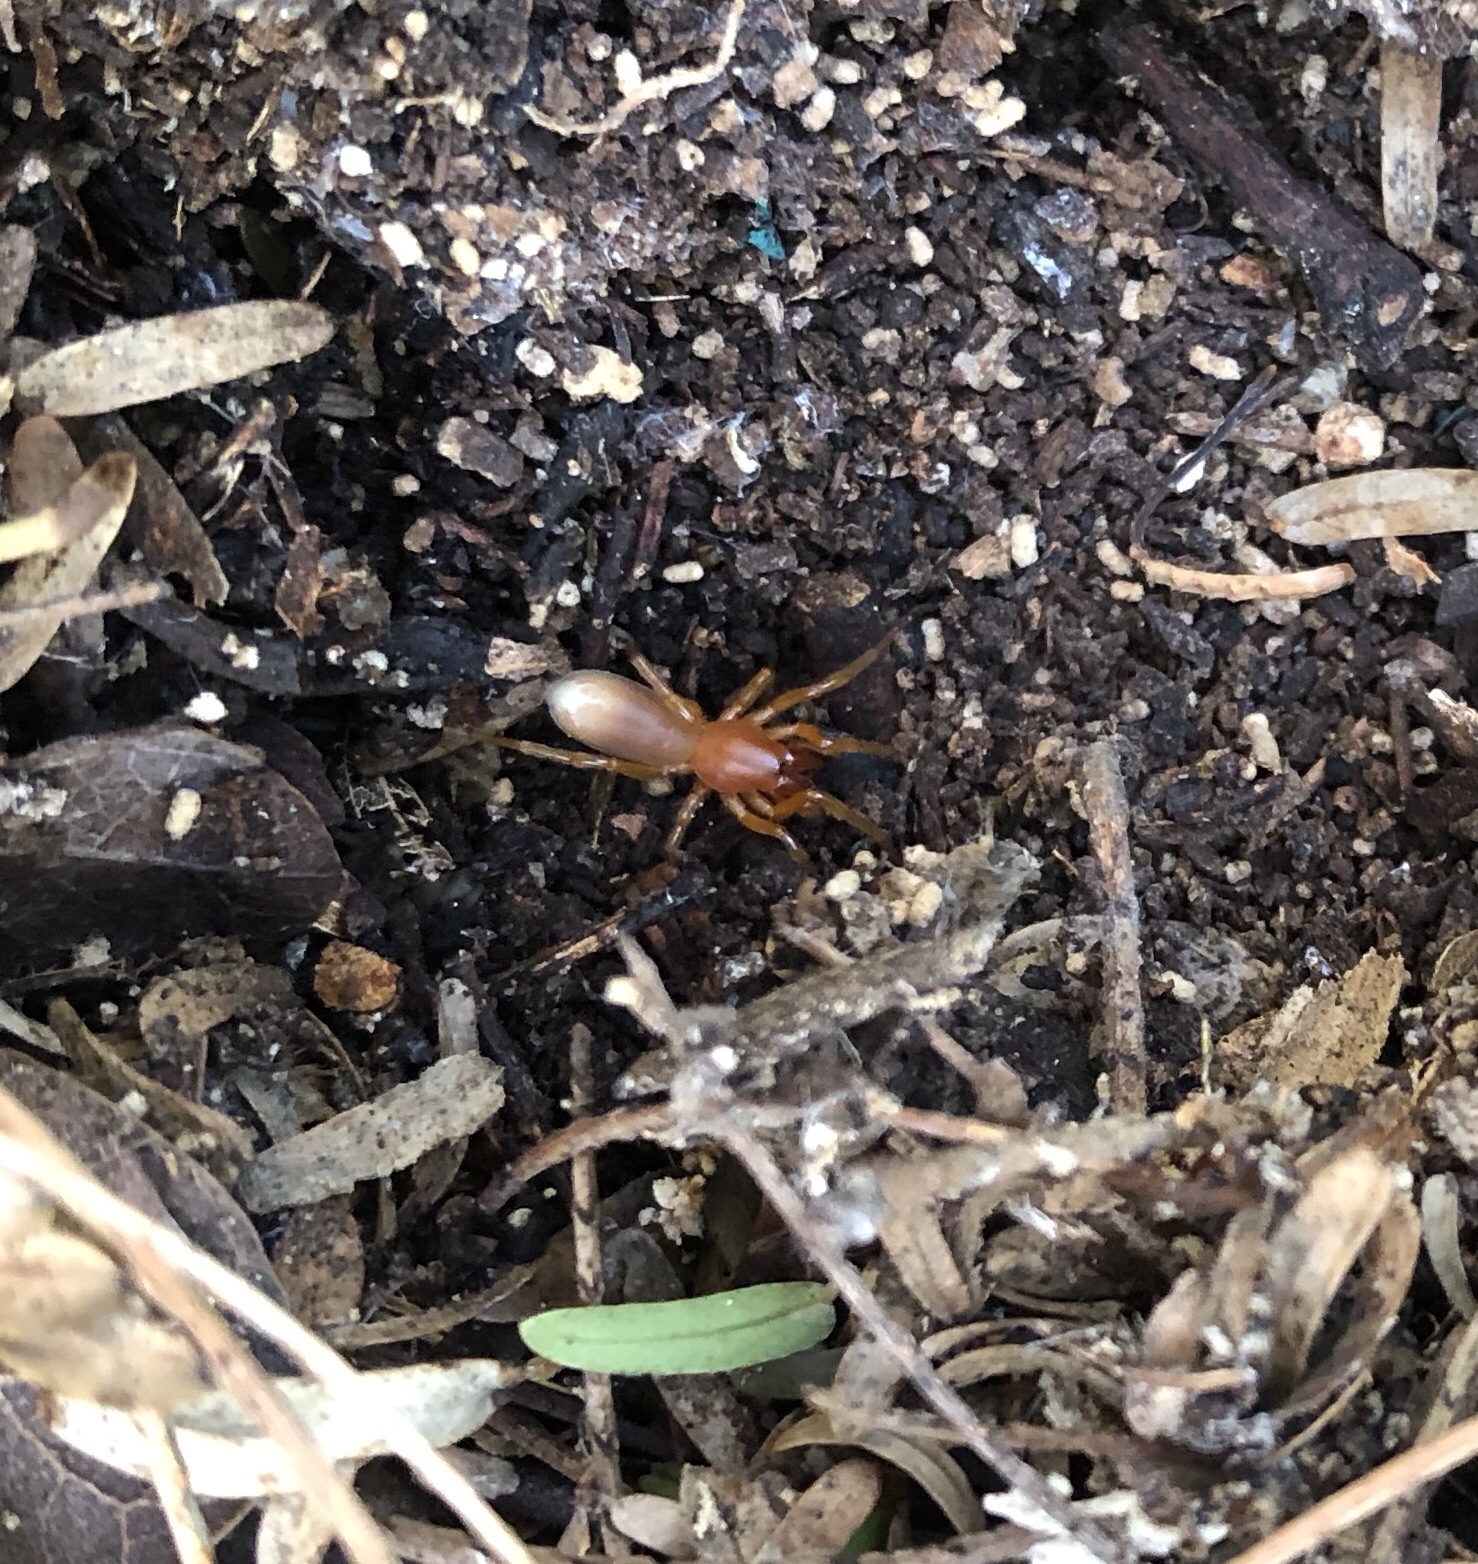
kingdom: Animalia
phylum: Arthropoda
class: Arachnida
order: Araneae
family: Dysderidae
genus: Dysdera
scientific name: Dysdera crocata
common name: Woodlouse spider
